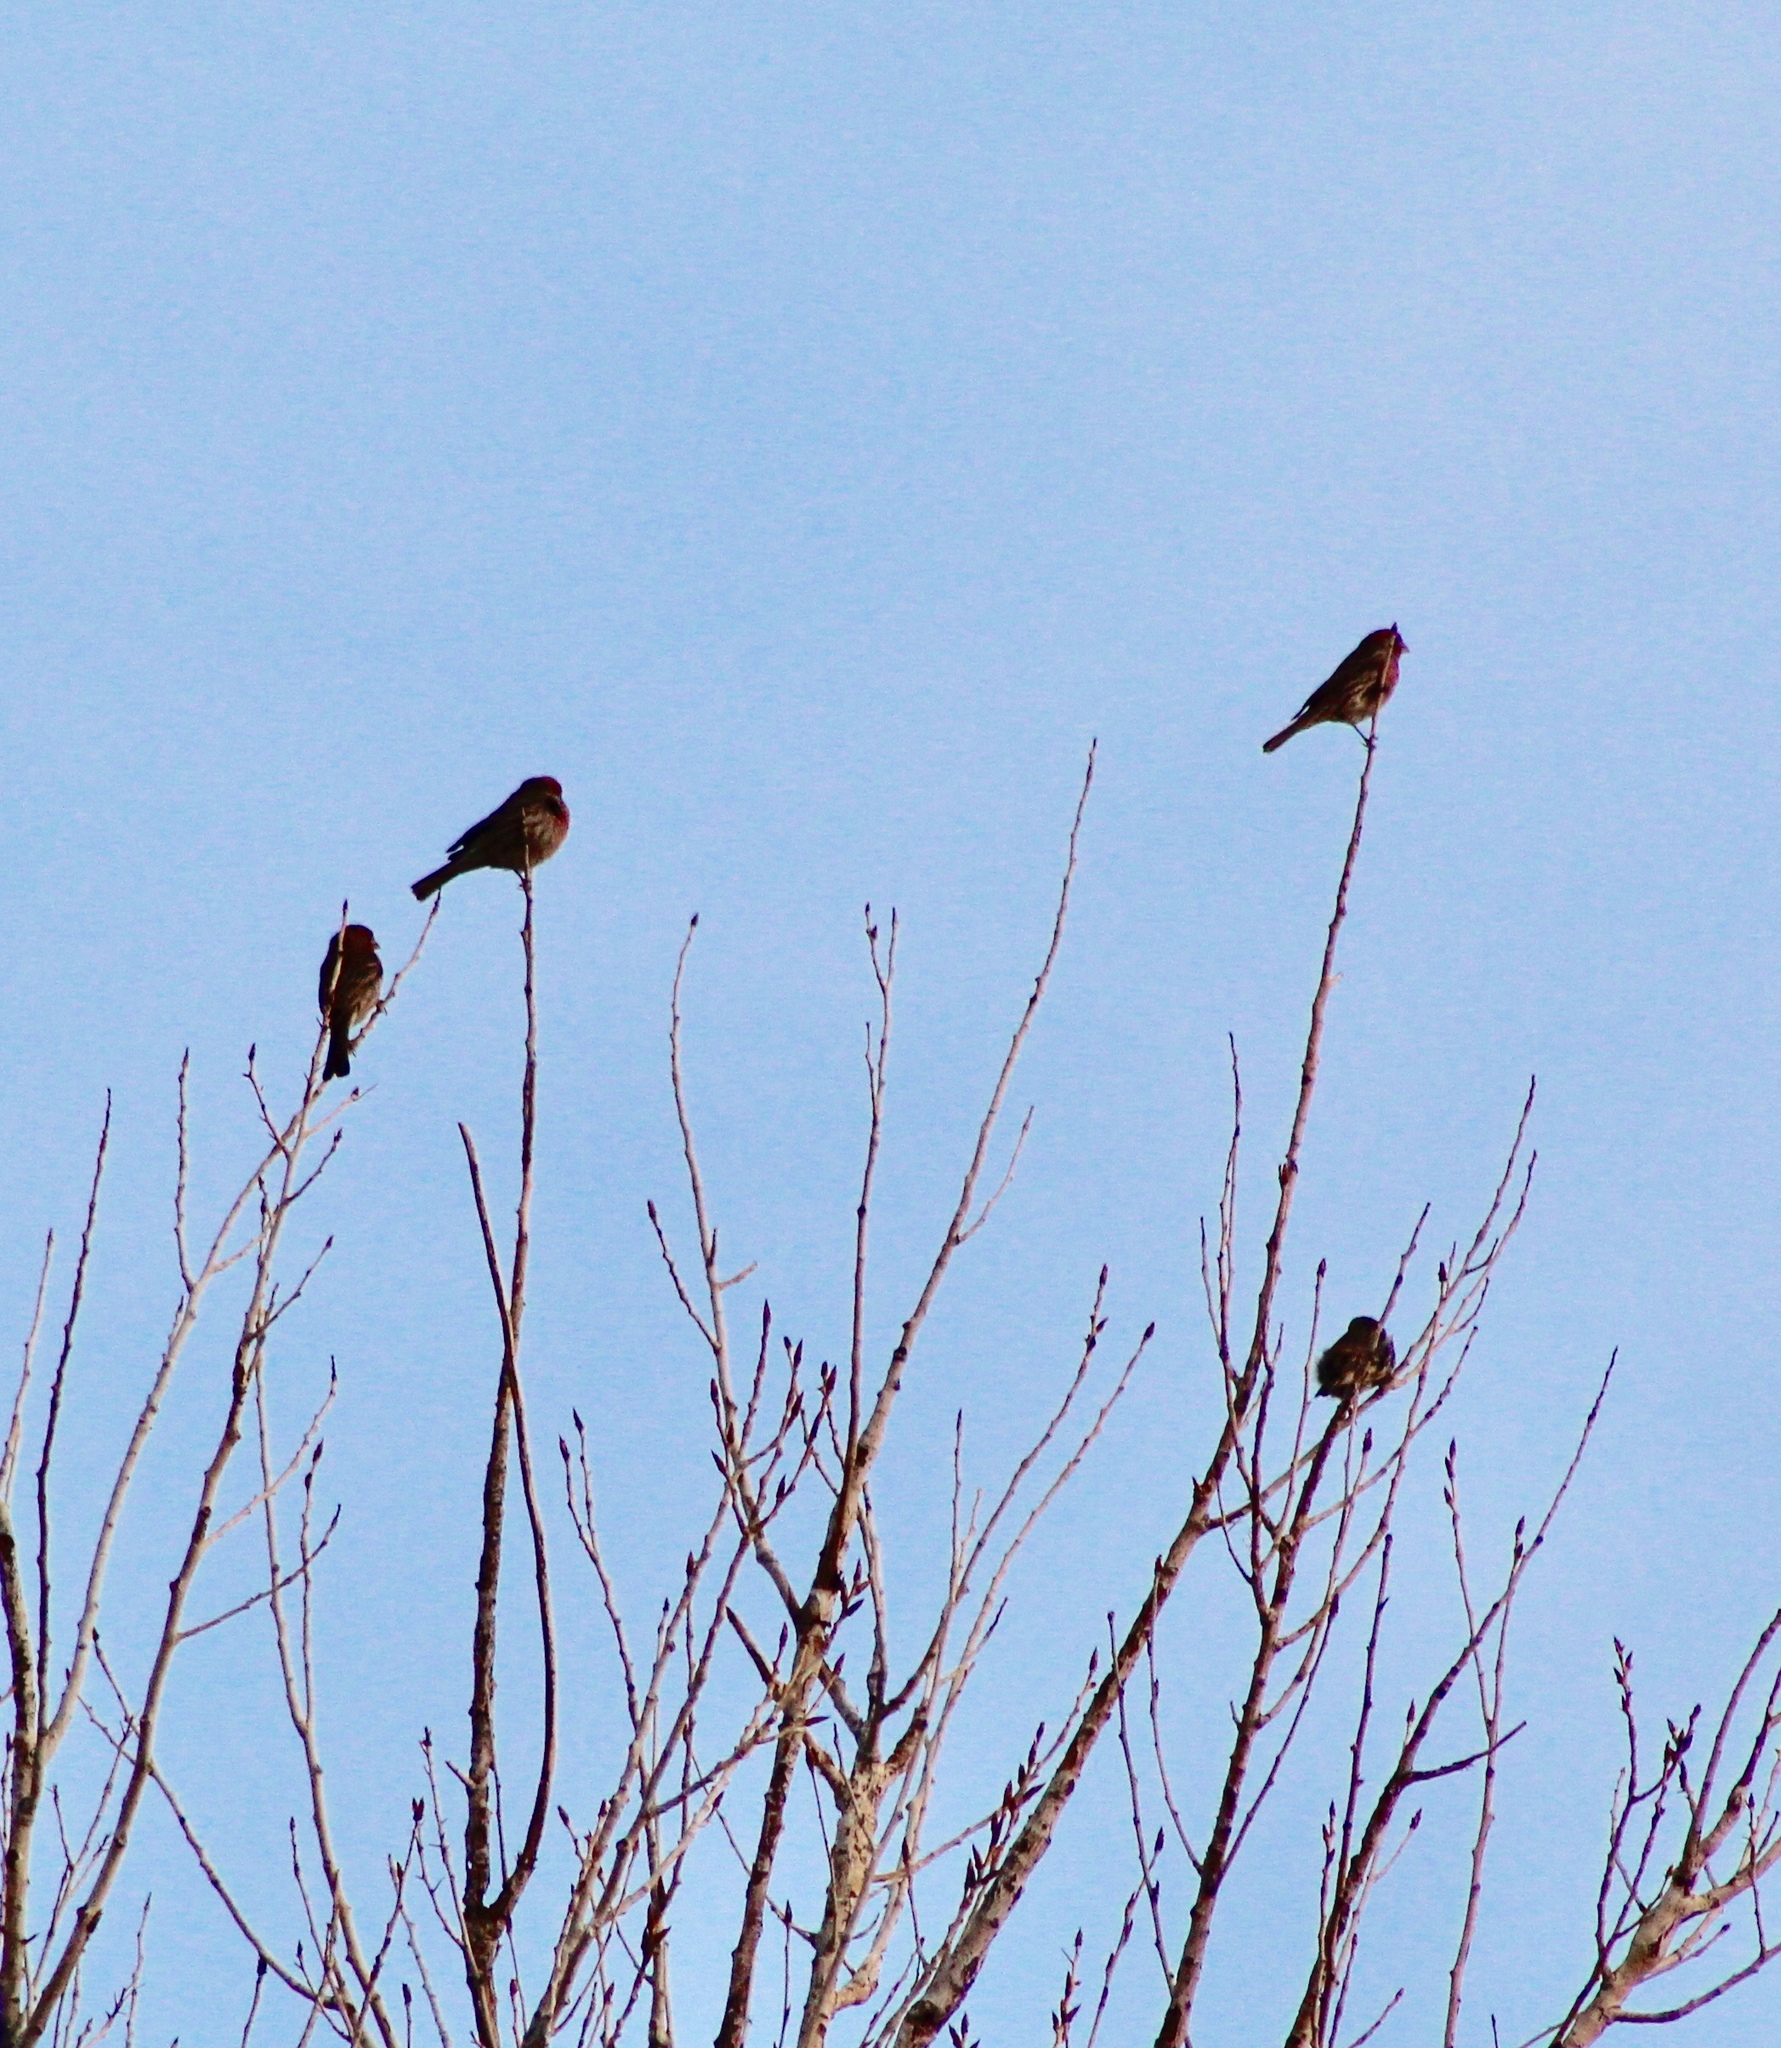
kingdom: Animalia
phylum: Chordata
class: Aves
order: Passeriformes
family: Fringillidae
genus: Haemorhous
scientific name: Haemorhous mexicanus
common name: House finch
